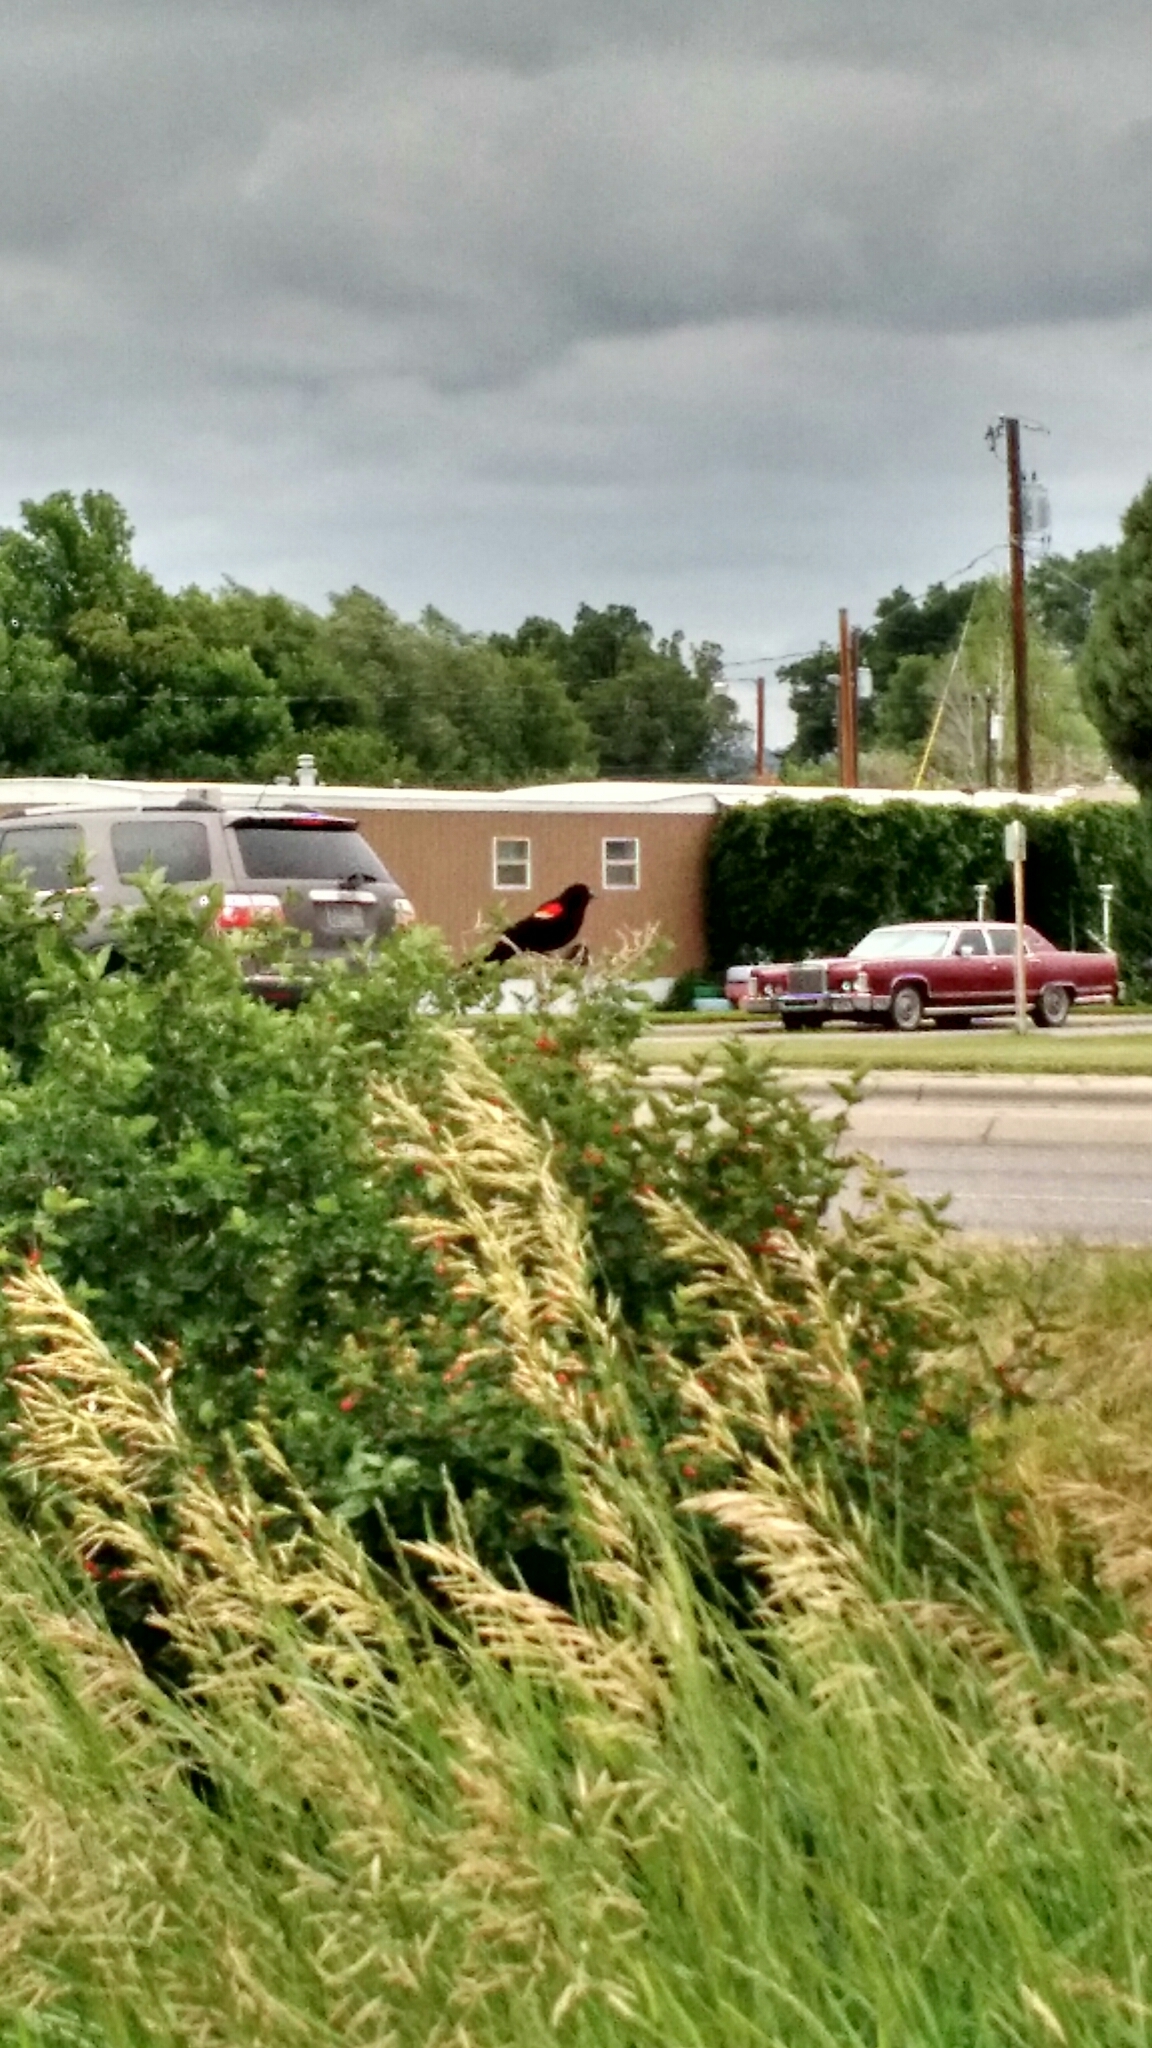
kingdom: Animalia
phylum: Chordata
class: Aves
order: Passeriformes
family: Icteridae
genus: Agelaius
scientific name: Agelaius phoeniceus
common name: Red-winged blackbird
